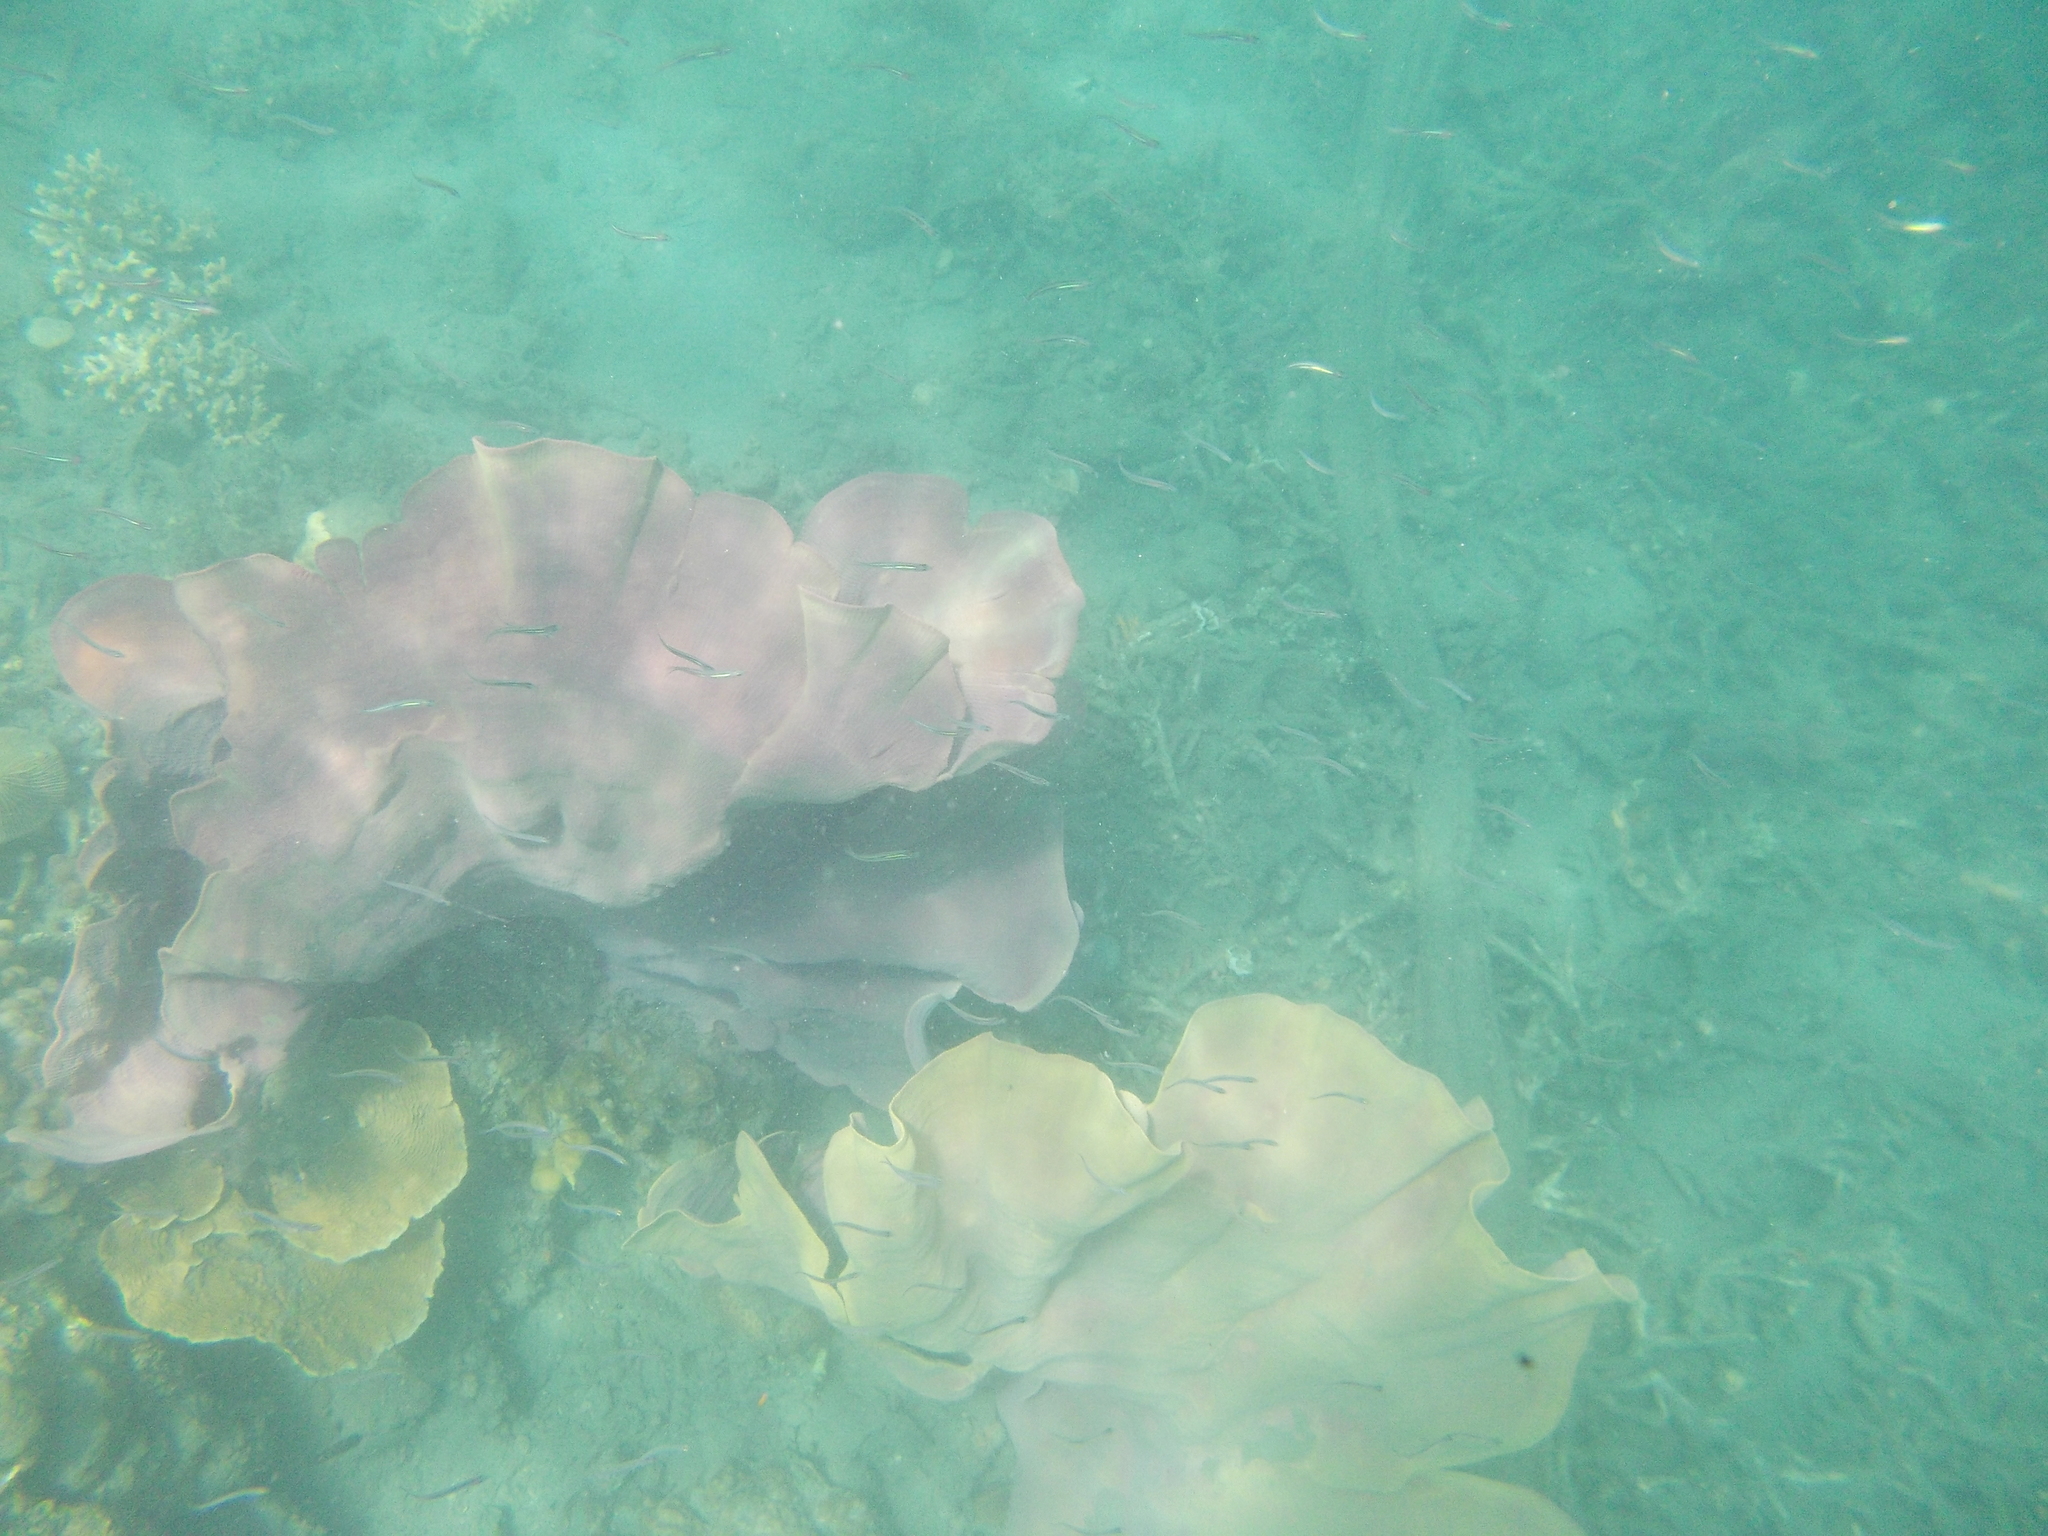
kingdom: Animalia
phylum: Porifera
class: Demospongiae
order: Verongiida
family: Ianthellidae
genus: Ianthella
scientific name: Ianthella basta
